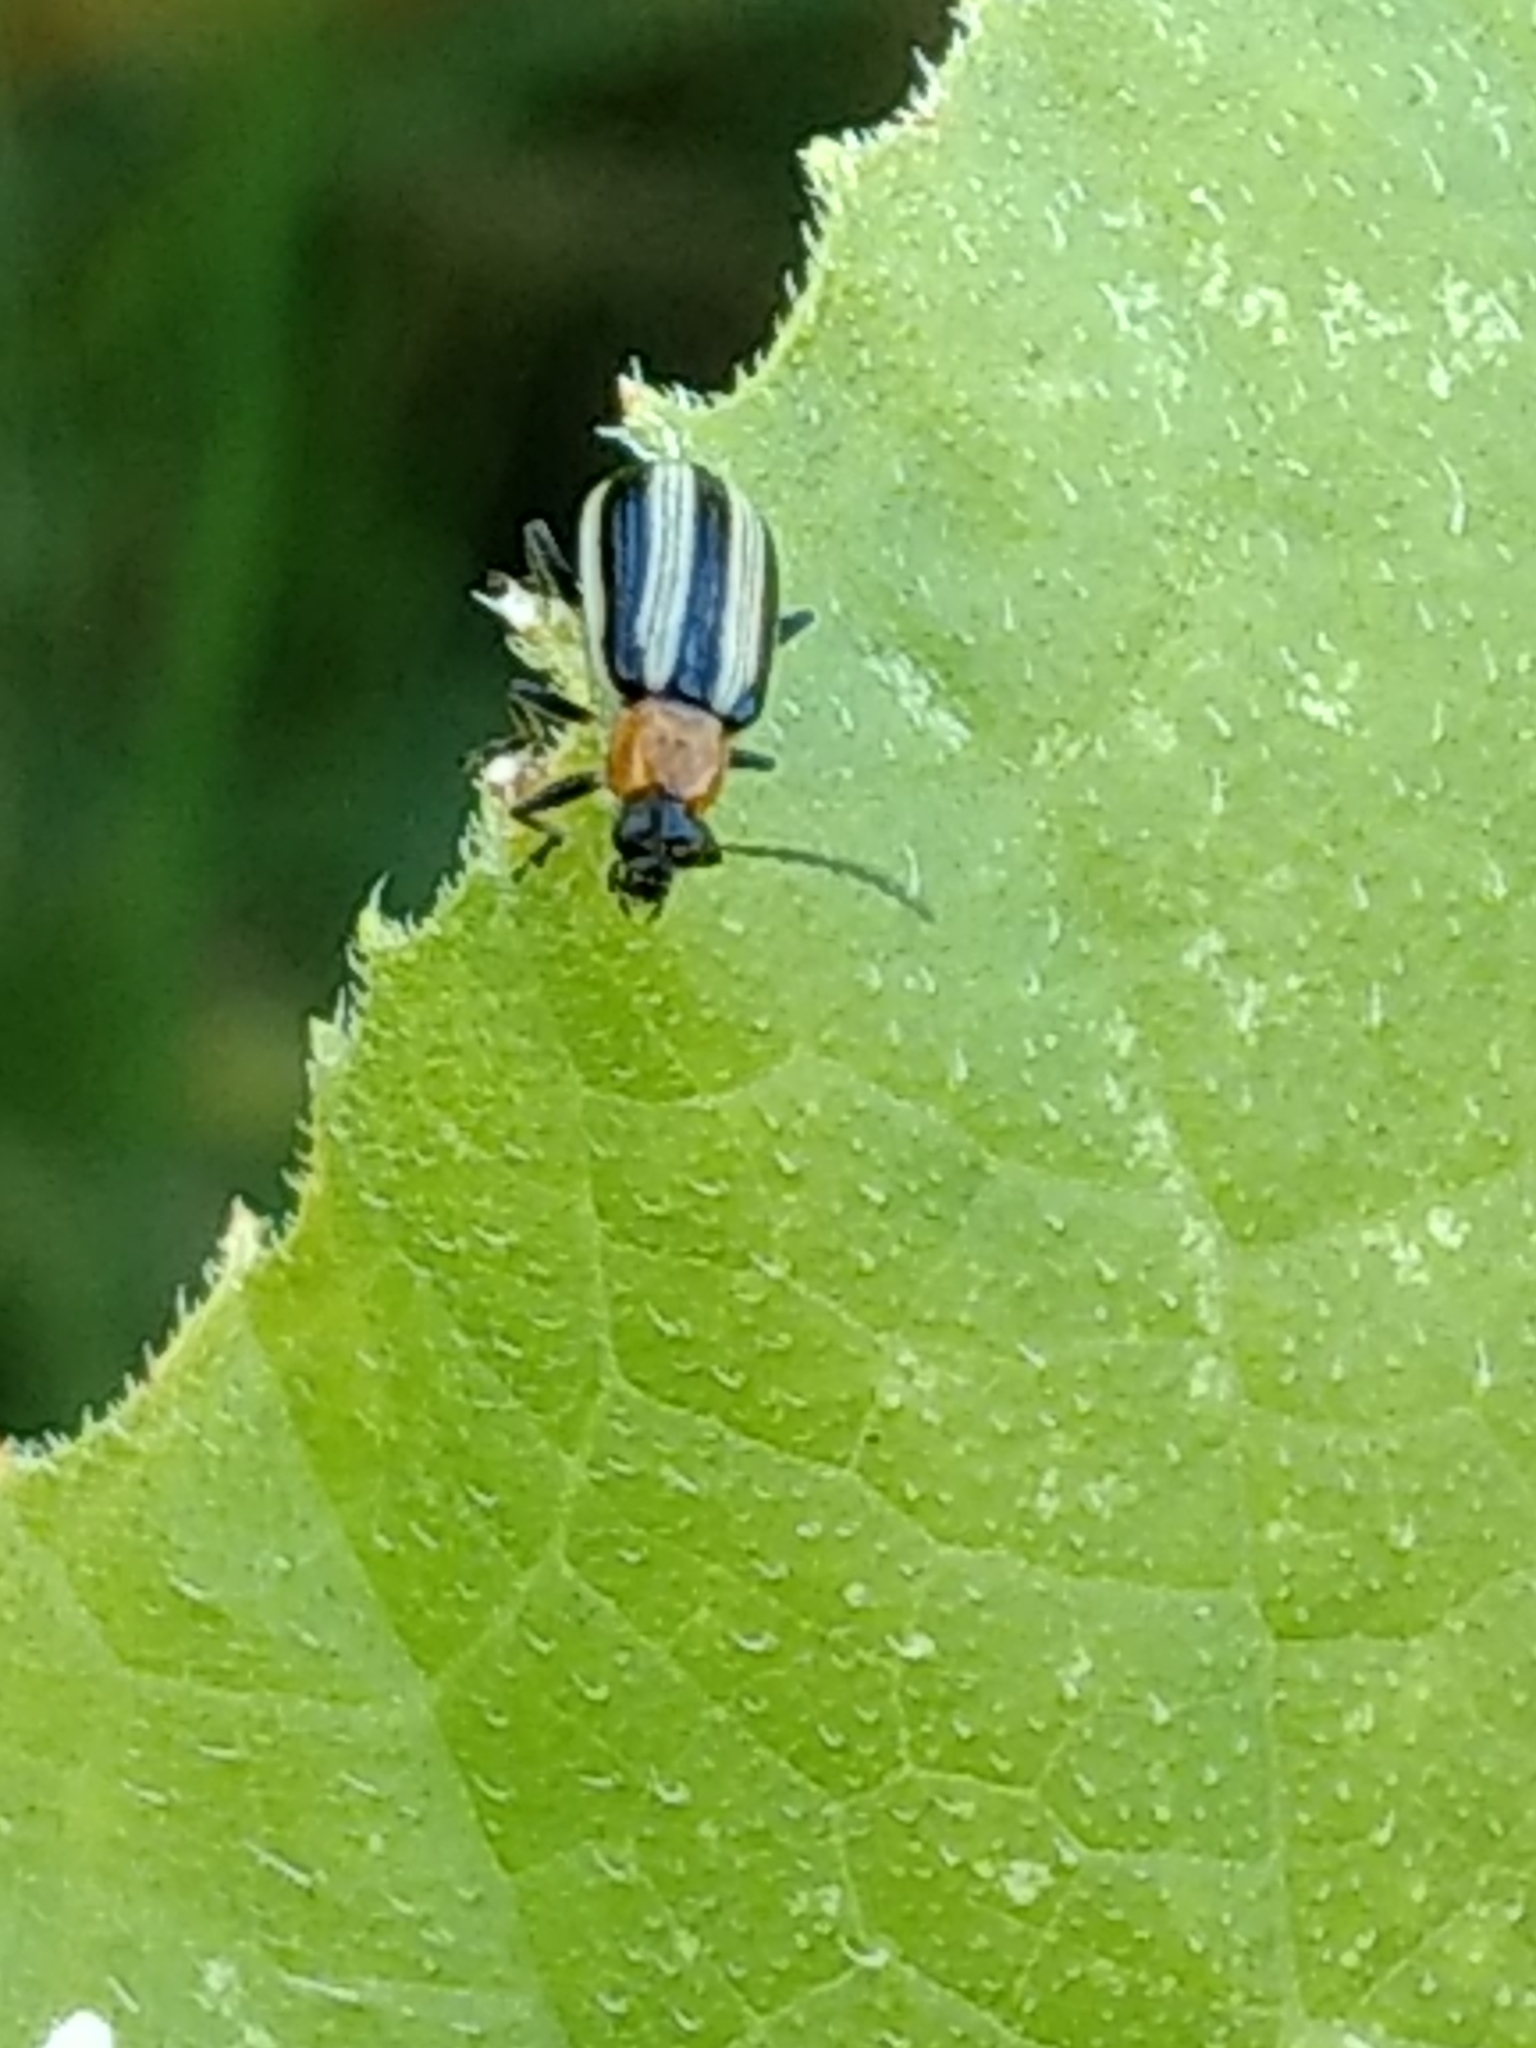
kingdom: Animalia
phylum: Arthropoda
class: Insecta
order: Coleoptera
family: Chrysomelidae
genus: Acalymma
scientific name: Acalymma trivittatum
